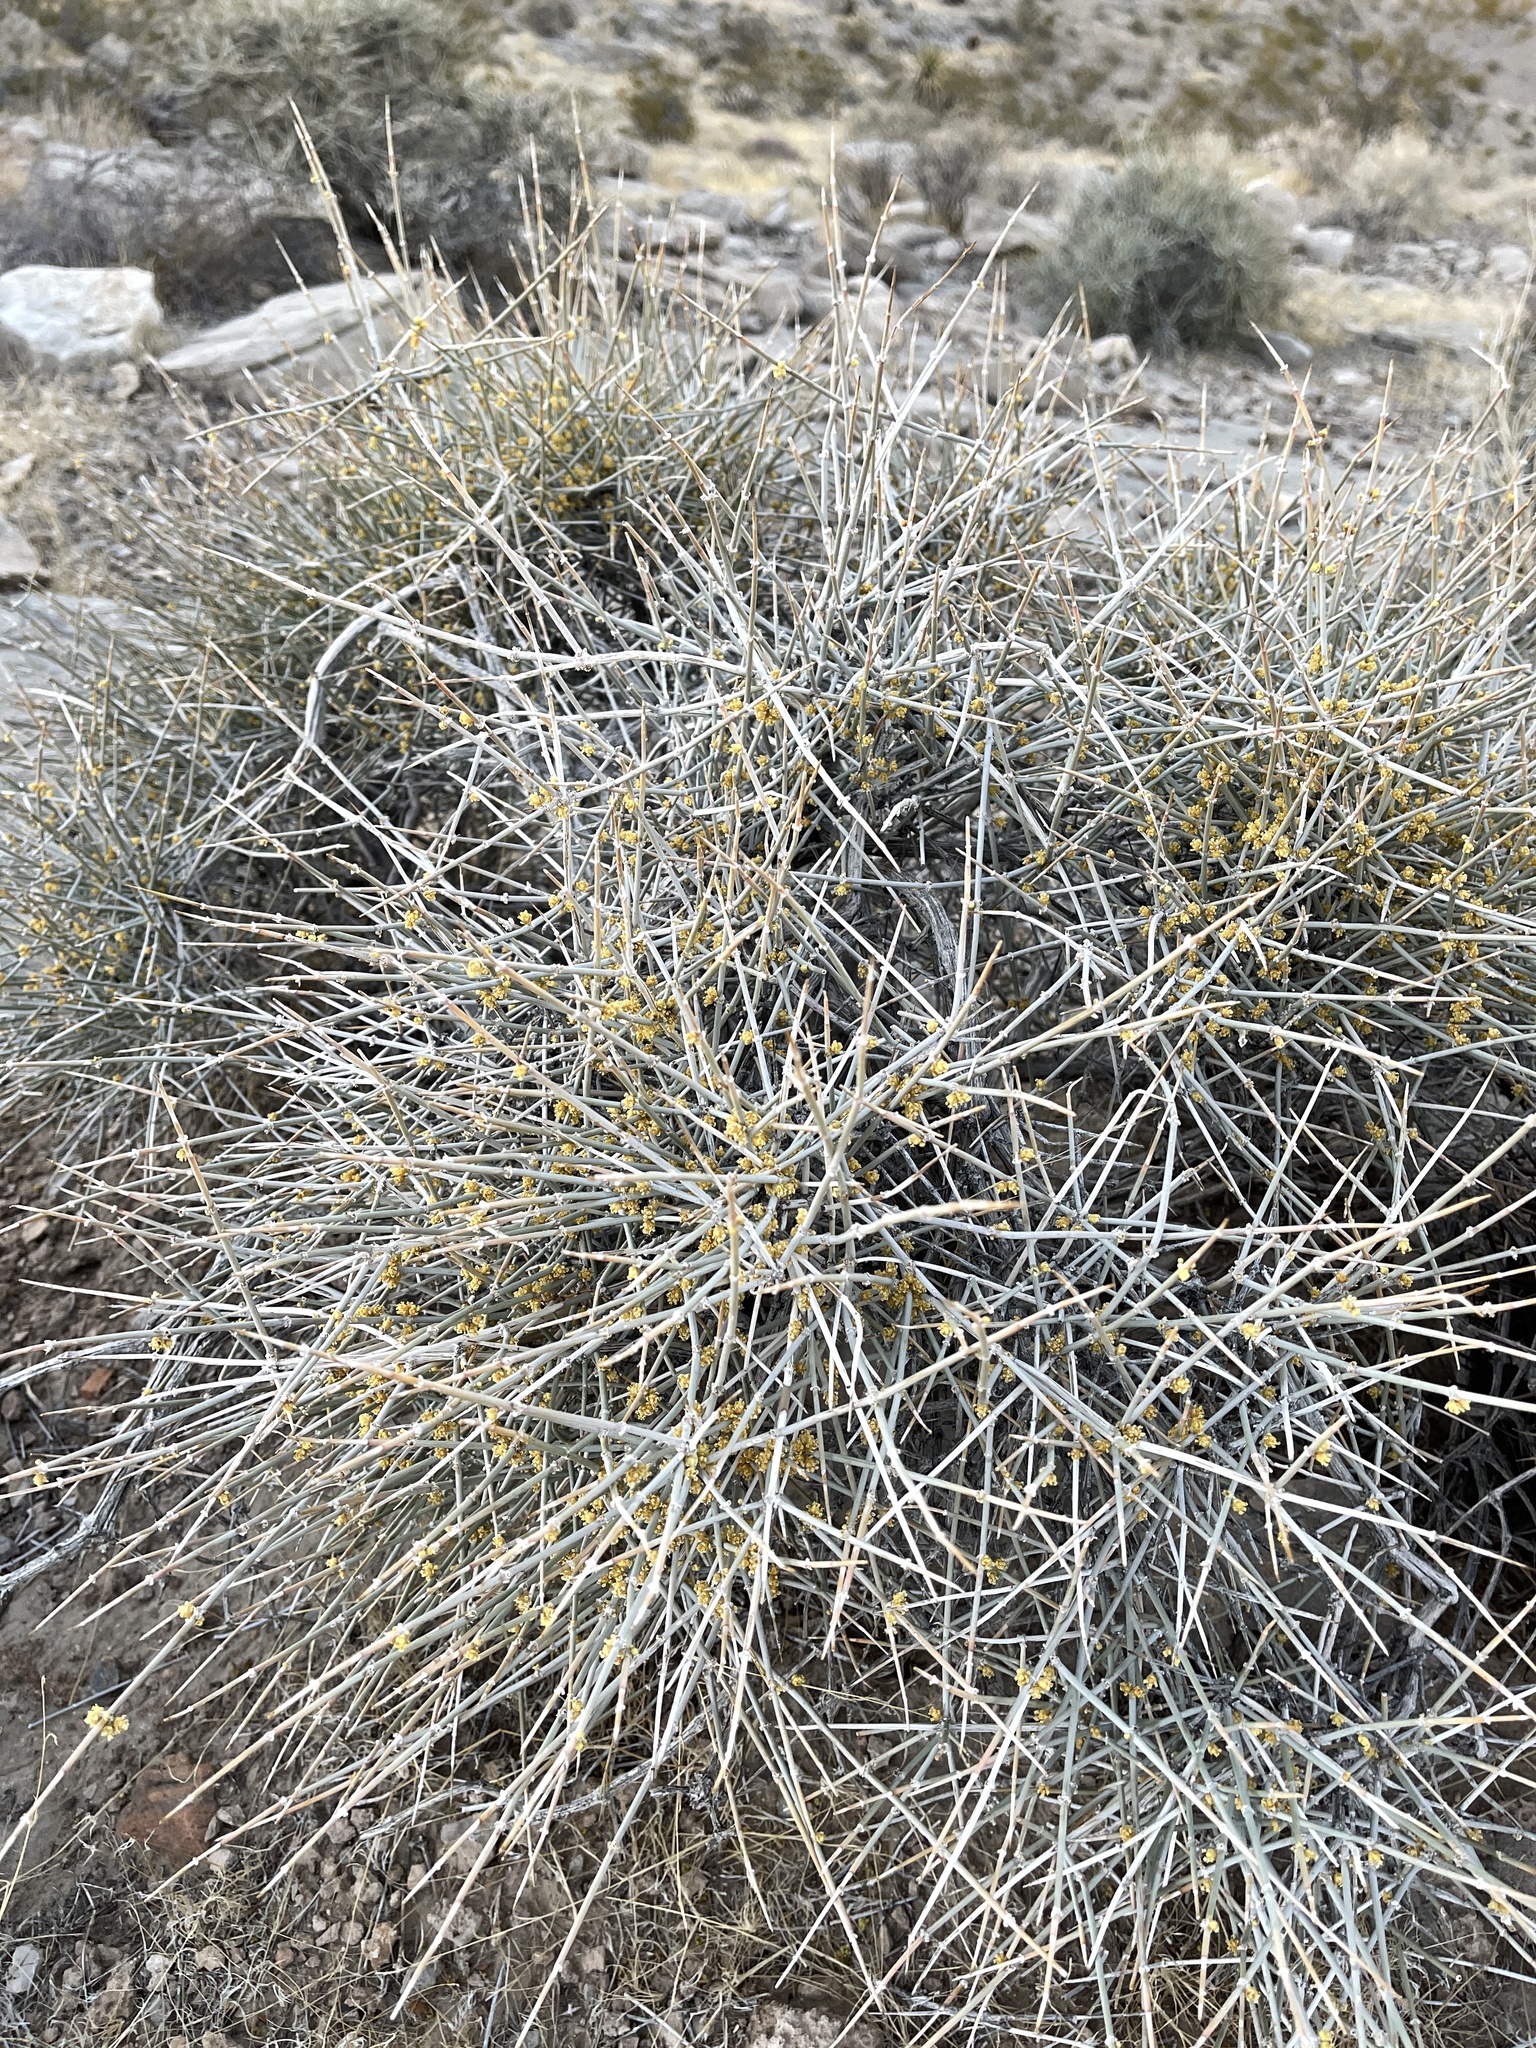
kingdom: Plantae
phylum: Tracheophyta
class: Gnetopsida
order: Ephedrales
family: Ephedraceae
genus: Ephedra
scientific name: Ephedra nevadensis
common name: Gray ephedra
